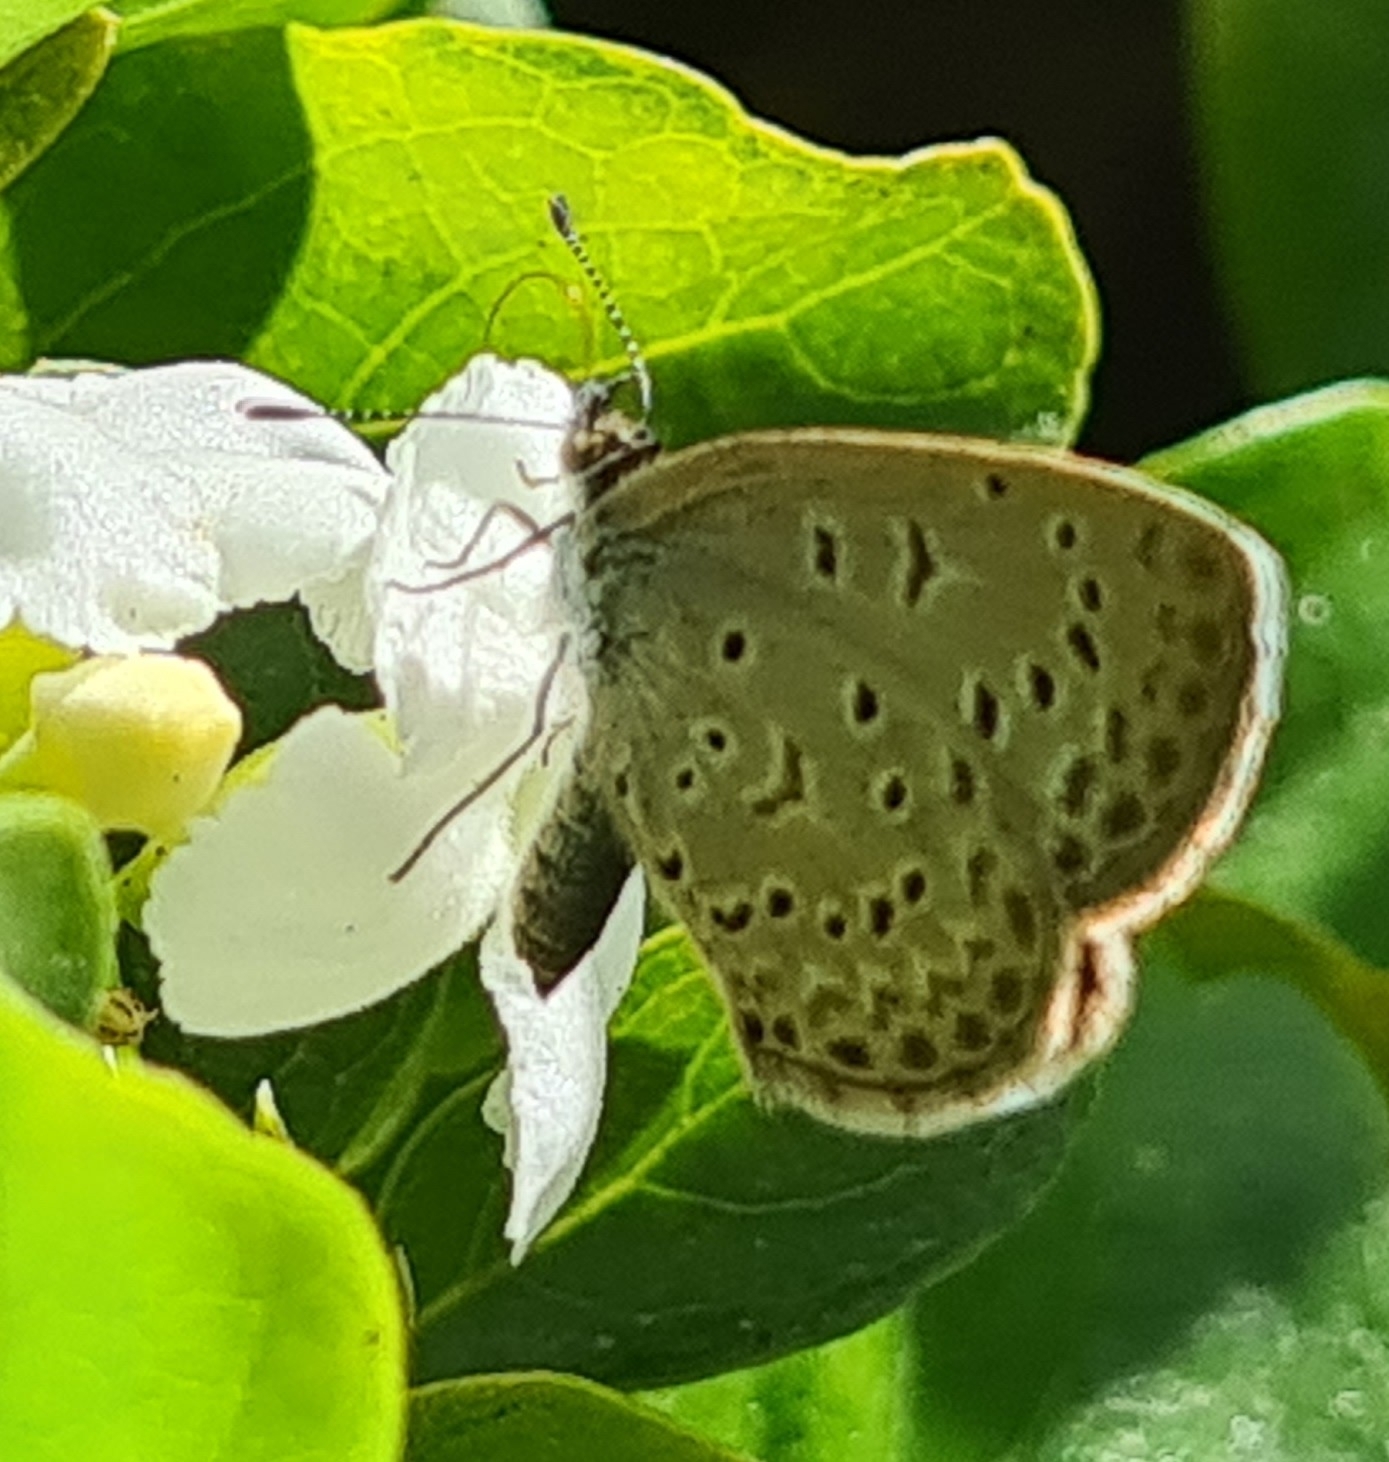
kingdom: Animalia
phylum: Arthropoda
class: Insecta
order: Lepidoptera
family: Lycaenidae
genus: Zizeeria
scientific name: Zizeeria knysna
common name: African grass blue
